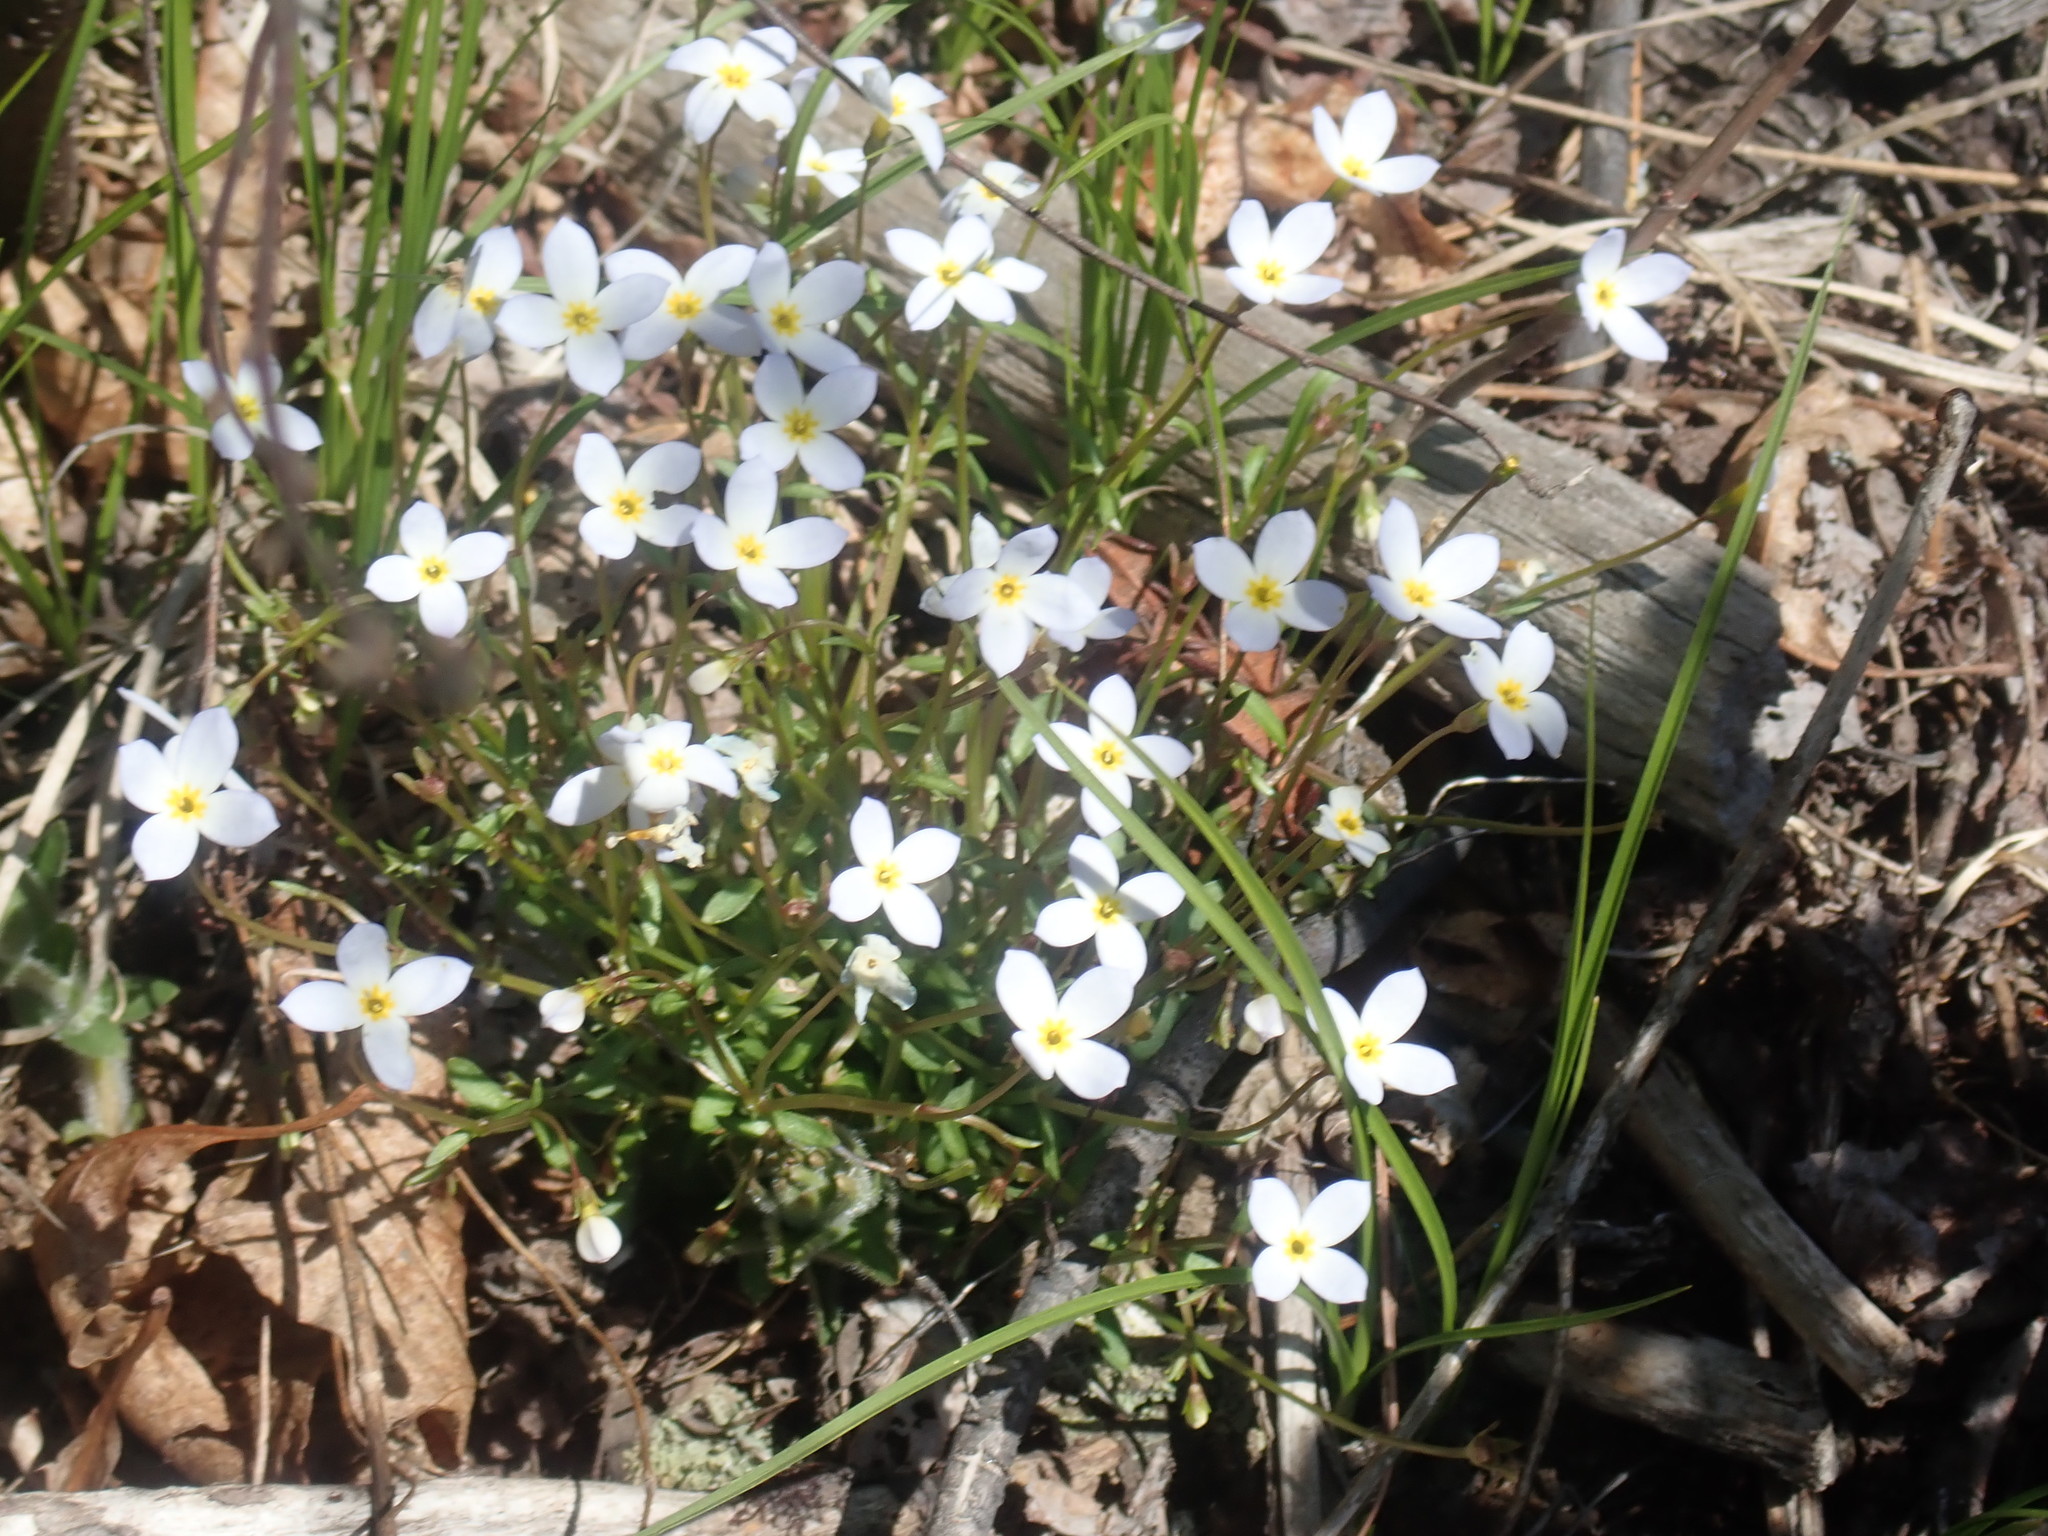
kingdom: Plantae
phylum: Tracheophyta
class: Magnoliopsida
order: Gentianales
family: Rubiaceae
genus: Houstonia
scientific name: Houstonia caerulea
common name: Bluets
